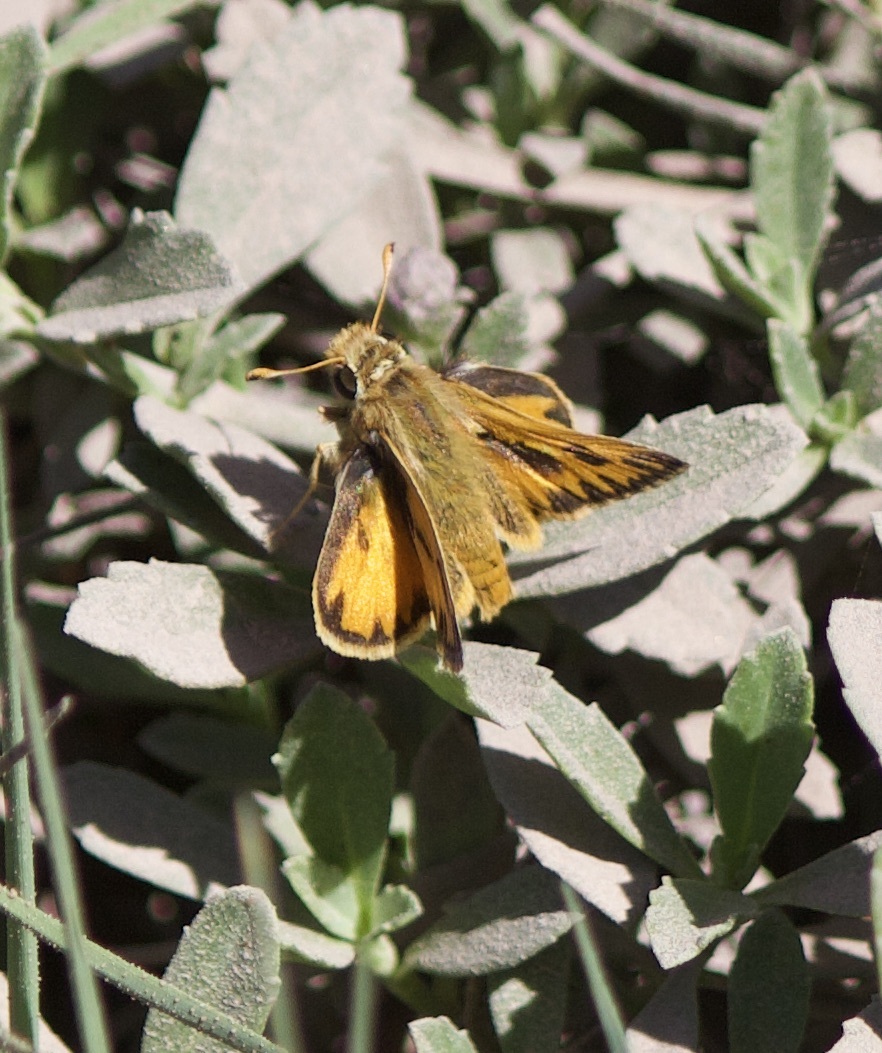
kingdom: Animalia
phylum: Arthropoda
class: Insecta
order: Lepidoptera
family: Hesperiidae
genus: Hylephila
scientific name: Hylephila fasciolata
